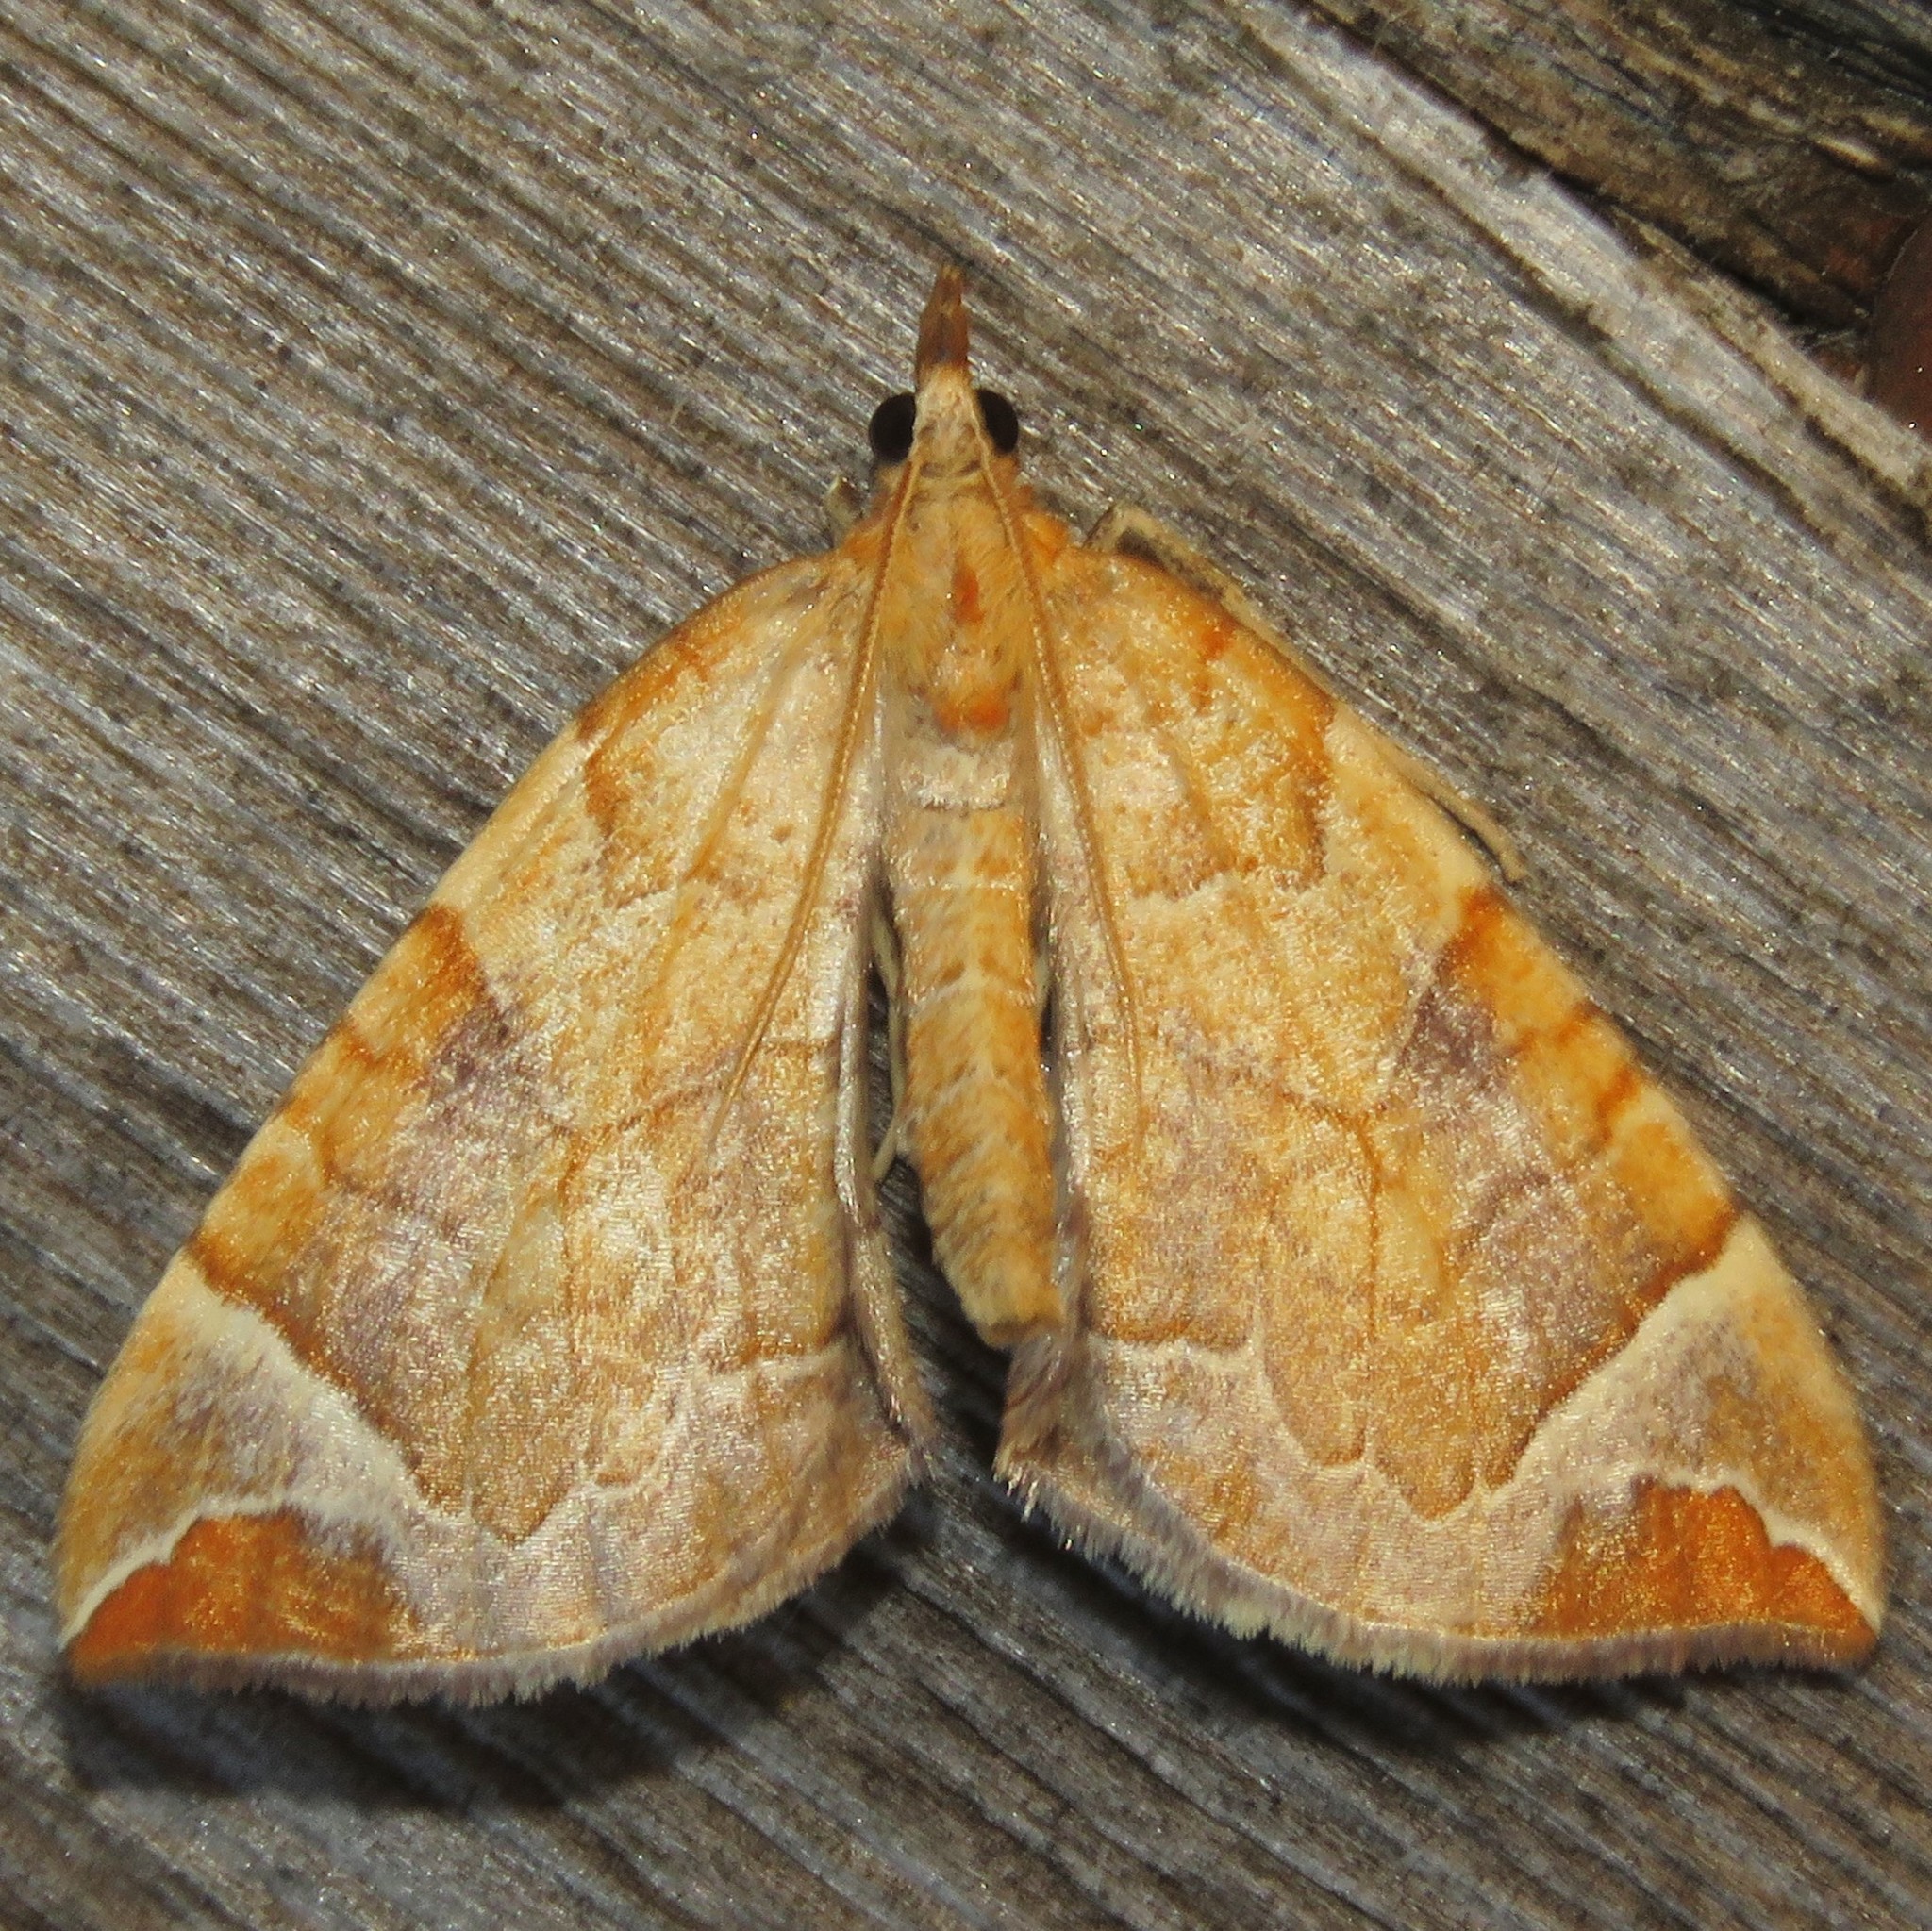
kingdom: Animalia
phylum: Arthropoda
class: Insecta
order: Lepidoptera
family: Geometridae
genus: Eulithis
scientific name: Eulithis testata
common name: Chevron
